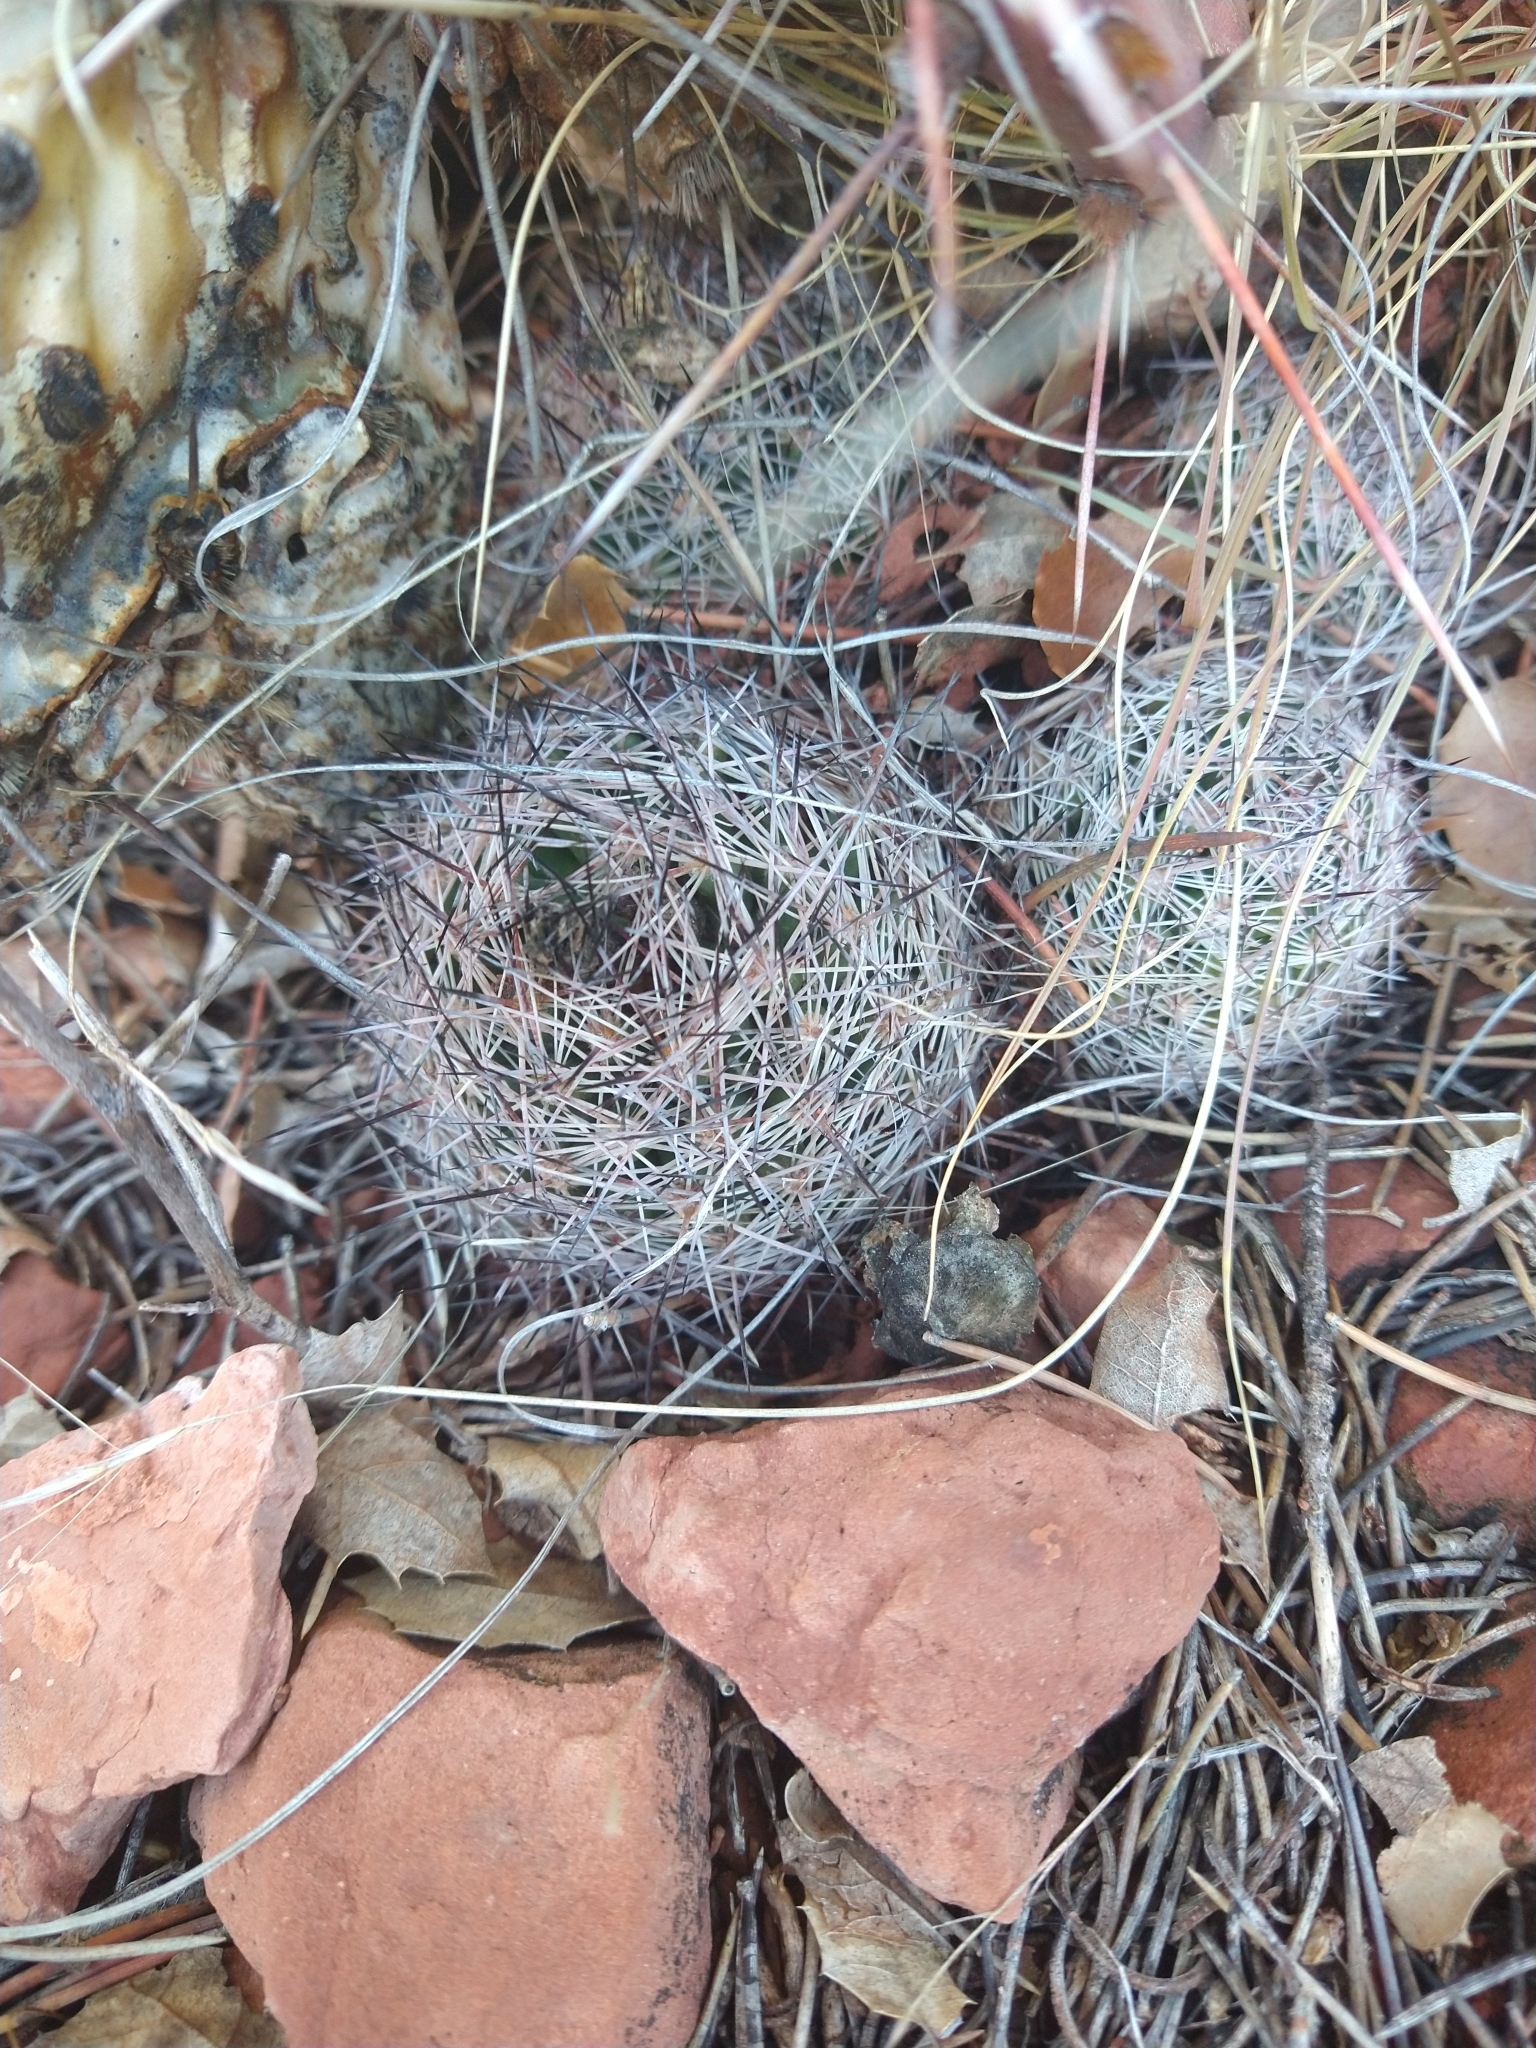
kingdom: Plantae
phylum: Tracheophyta
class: Magnoliopsida
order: Caryophyllales
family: Cactaceae
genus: Pelecyphora
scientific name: Pelecyphora vivipara
